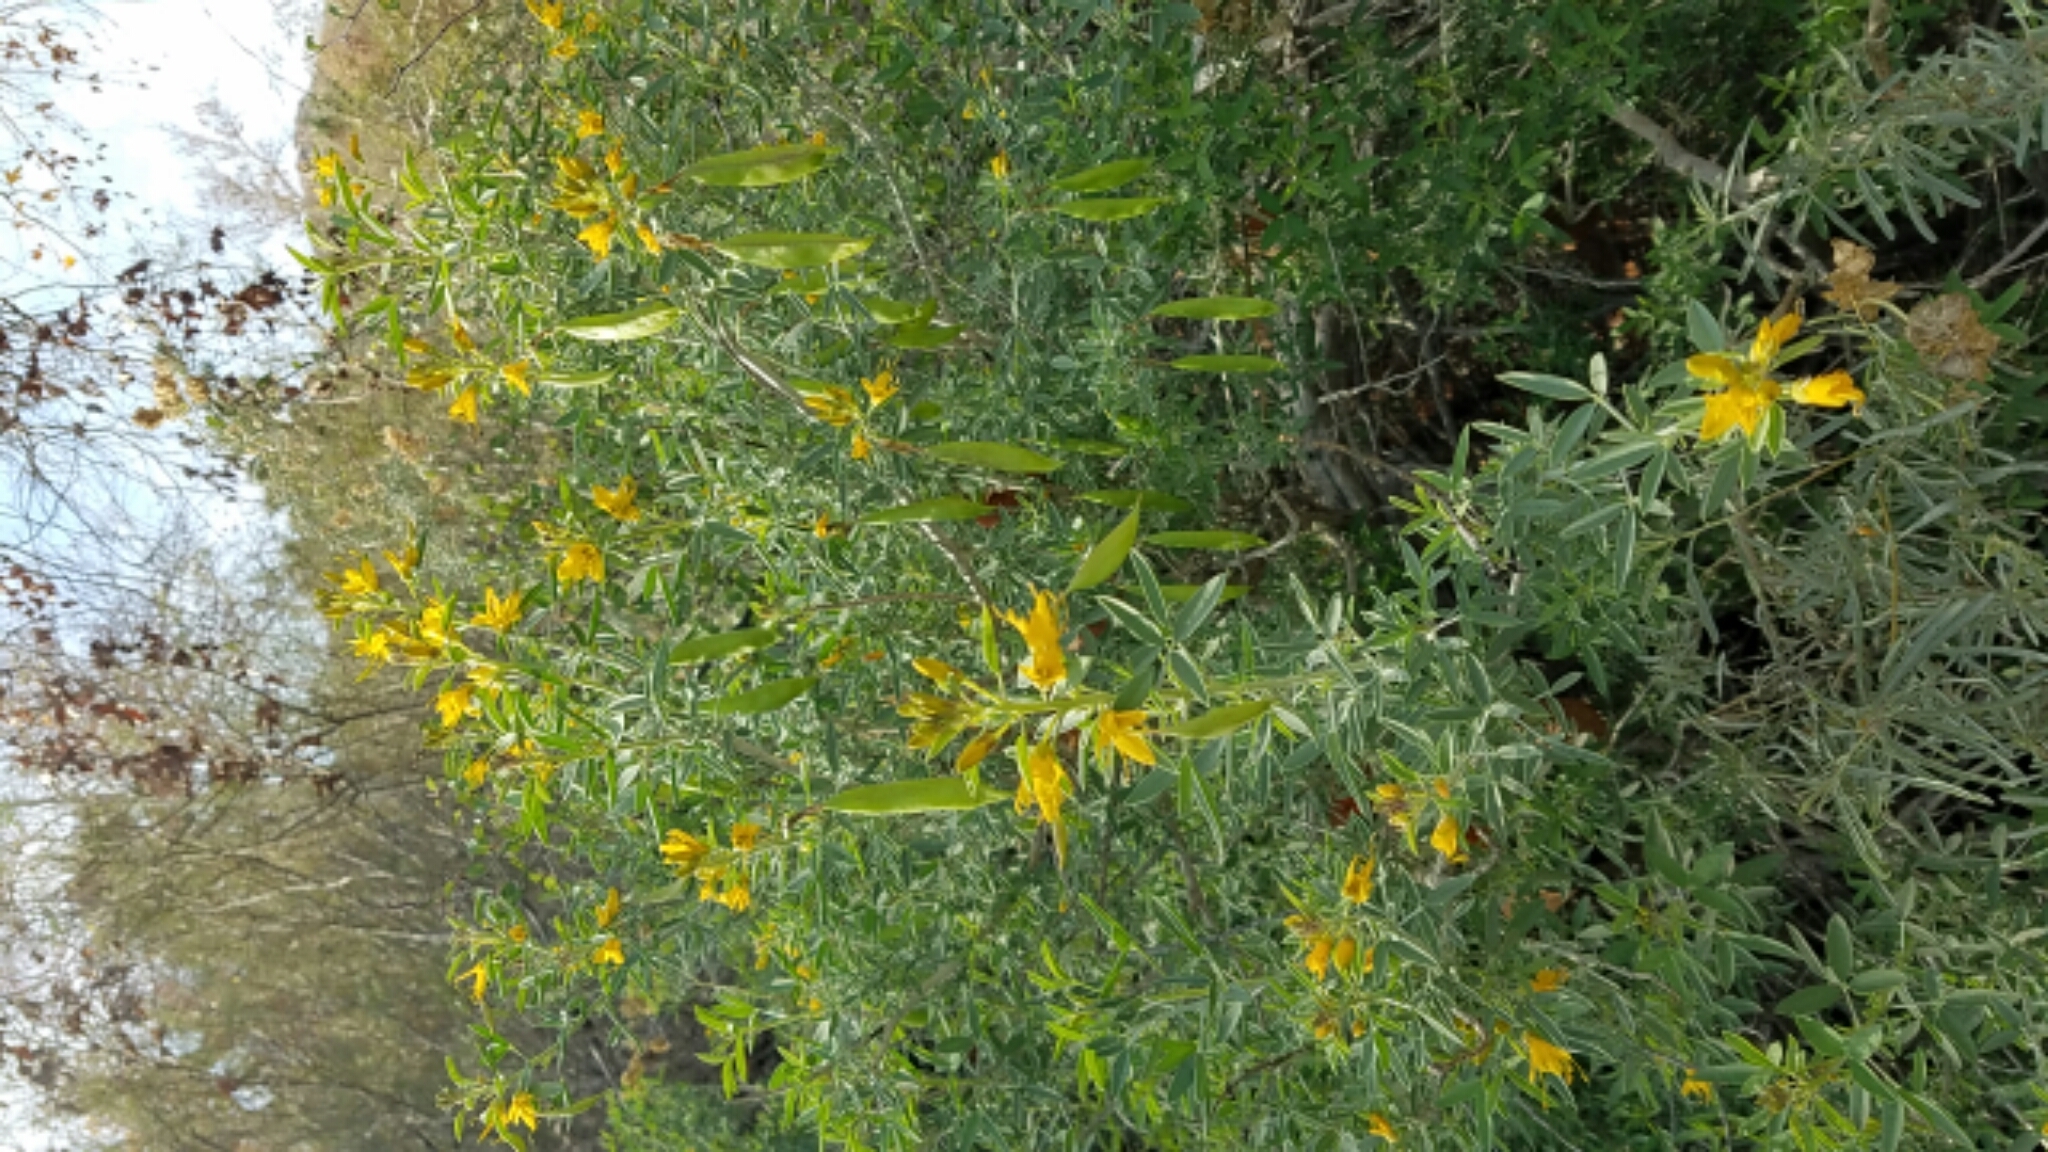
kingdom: Plantae
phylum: Tracheophyta
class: Magnoliopsida
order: Brassicales
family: Cleomaceae
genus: Cleomella
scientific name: Cleomella arborea
